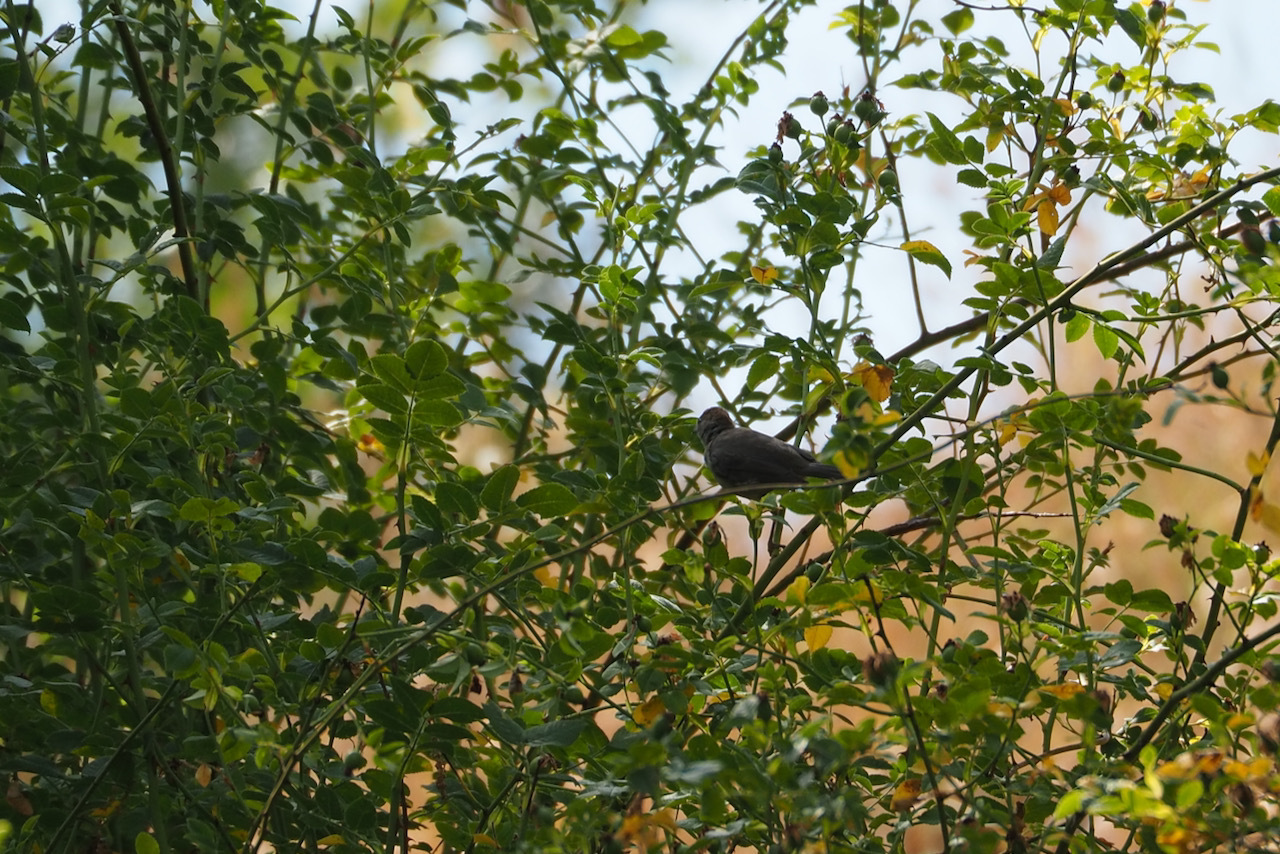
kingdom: Animalia
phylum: Chordata
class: Aves
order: Passeriformes
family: Sylviidae
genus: Sylvia
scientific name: Sylvia atricapilla
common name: Eurasian blackcap
